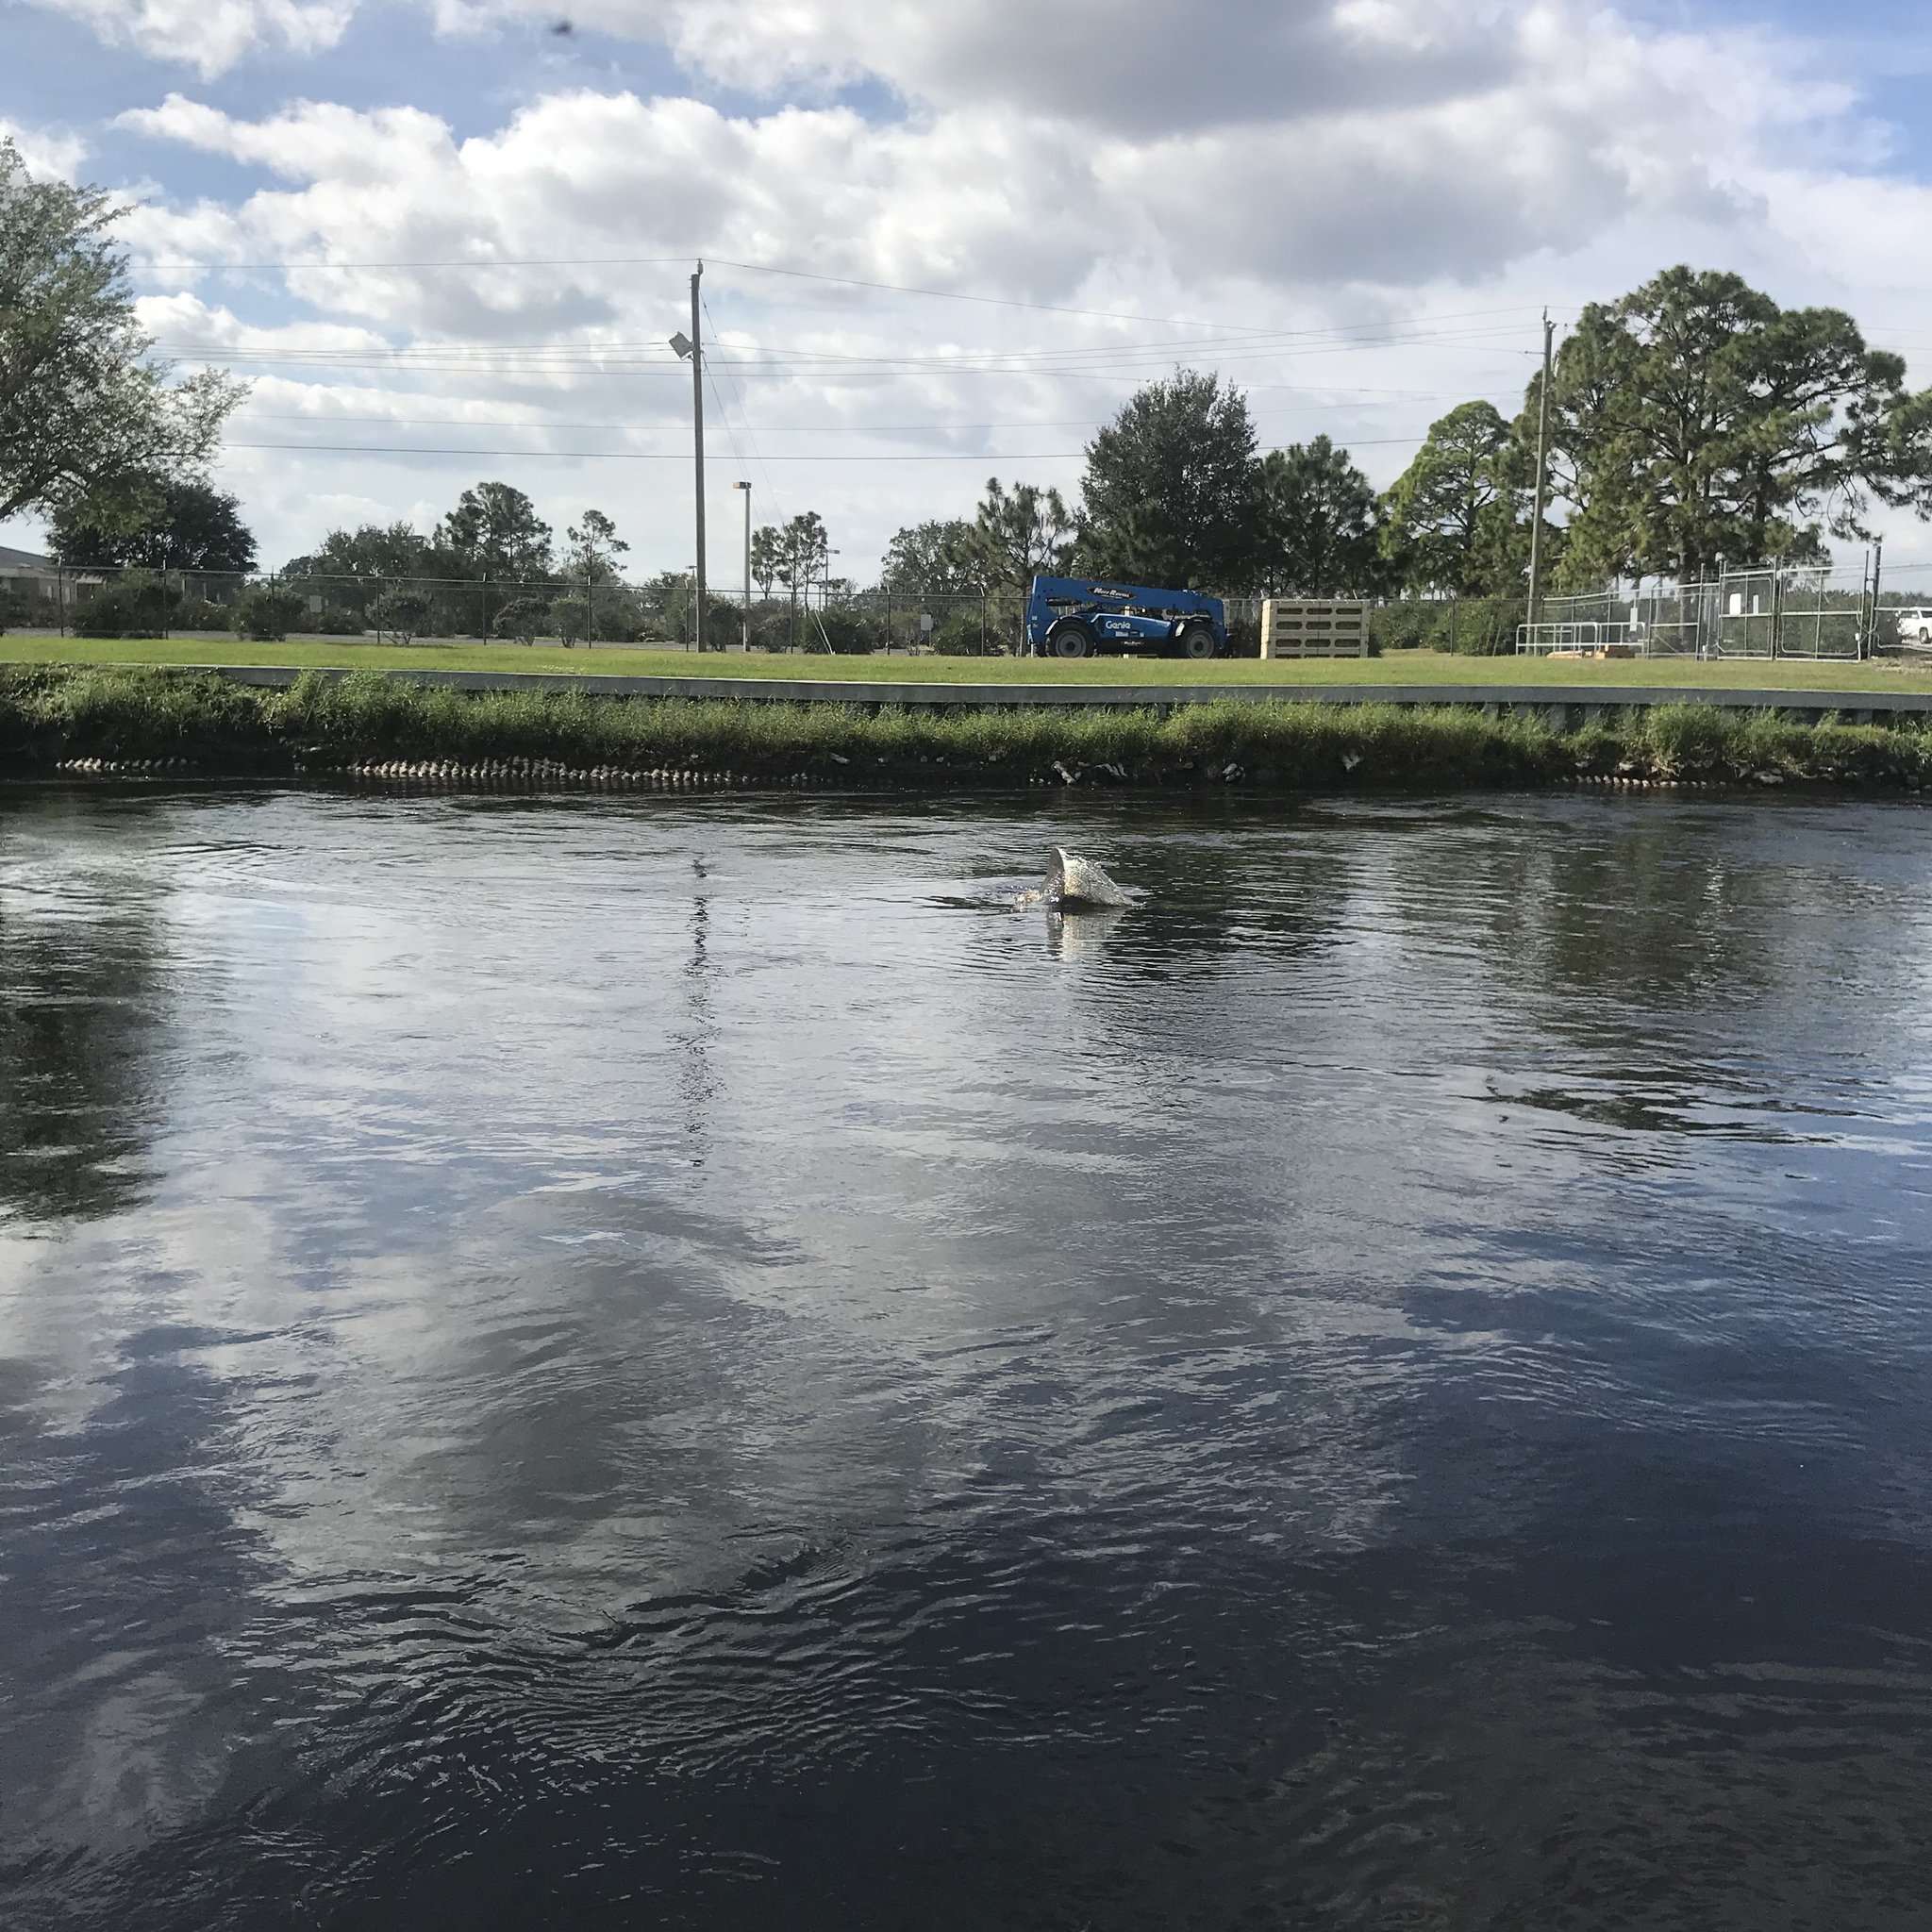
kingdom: Animalia
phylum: Chordata
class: Mammalia
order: Sirenia
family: Trichechidae
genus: Trichechus
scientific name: Trichechus manatus
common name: West indian manatee
